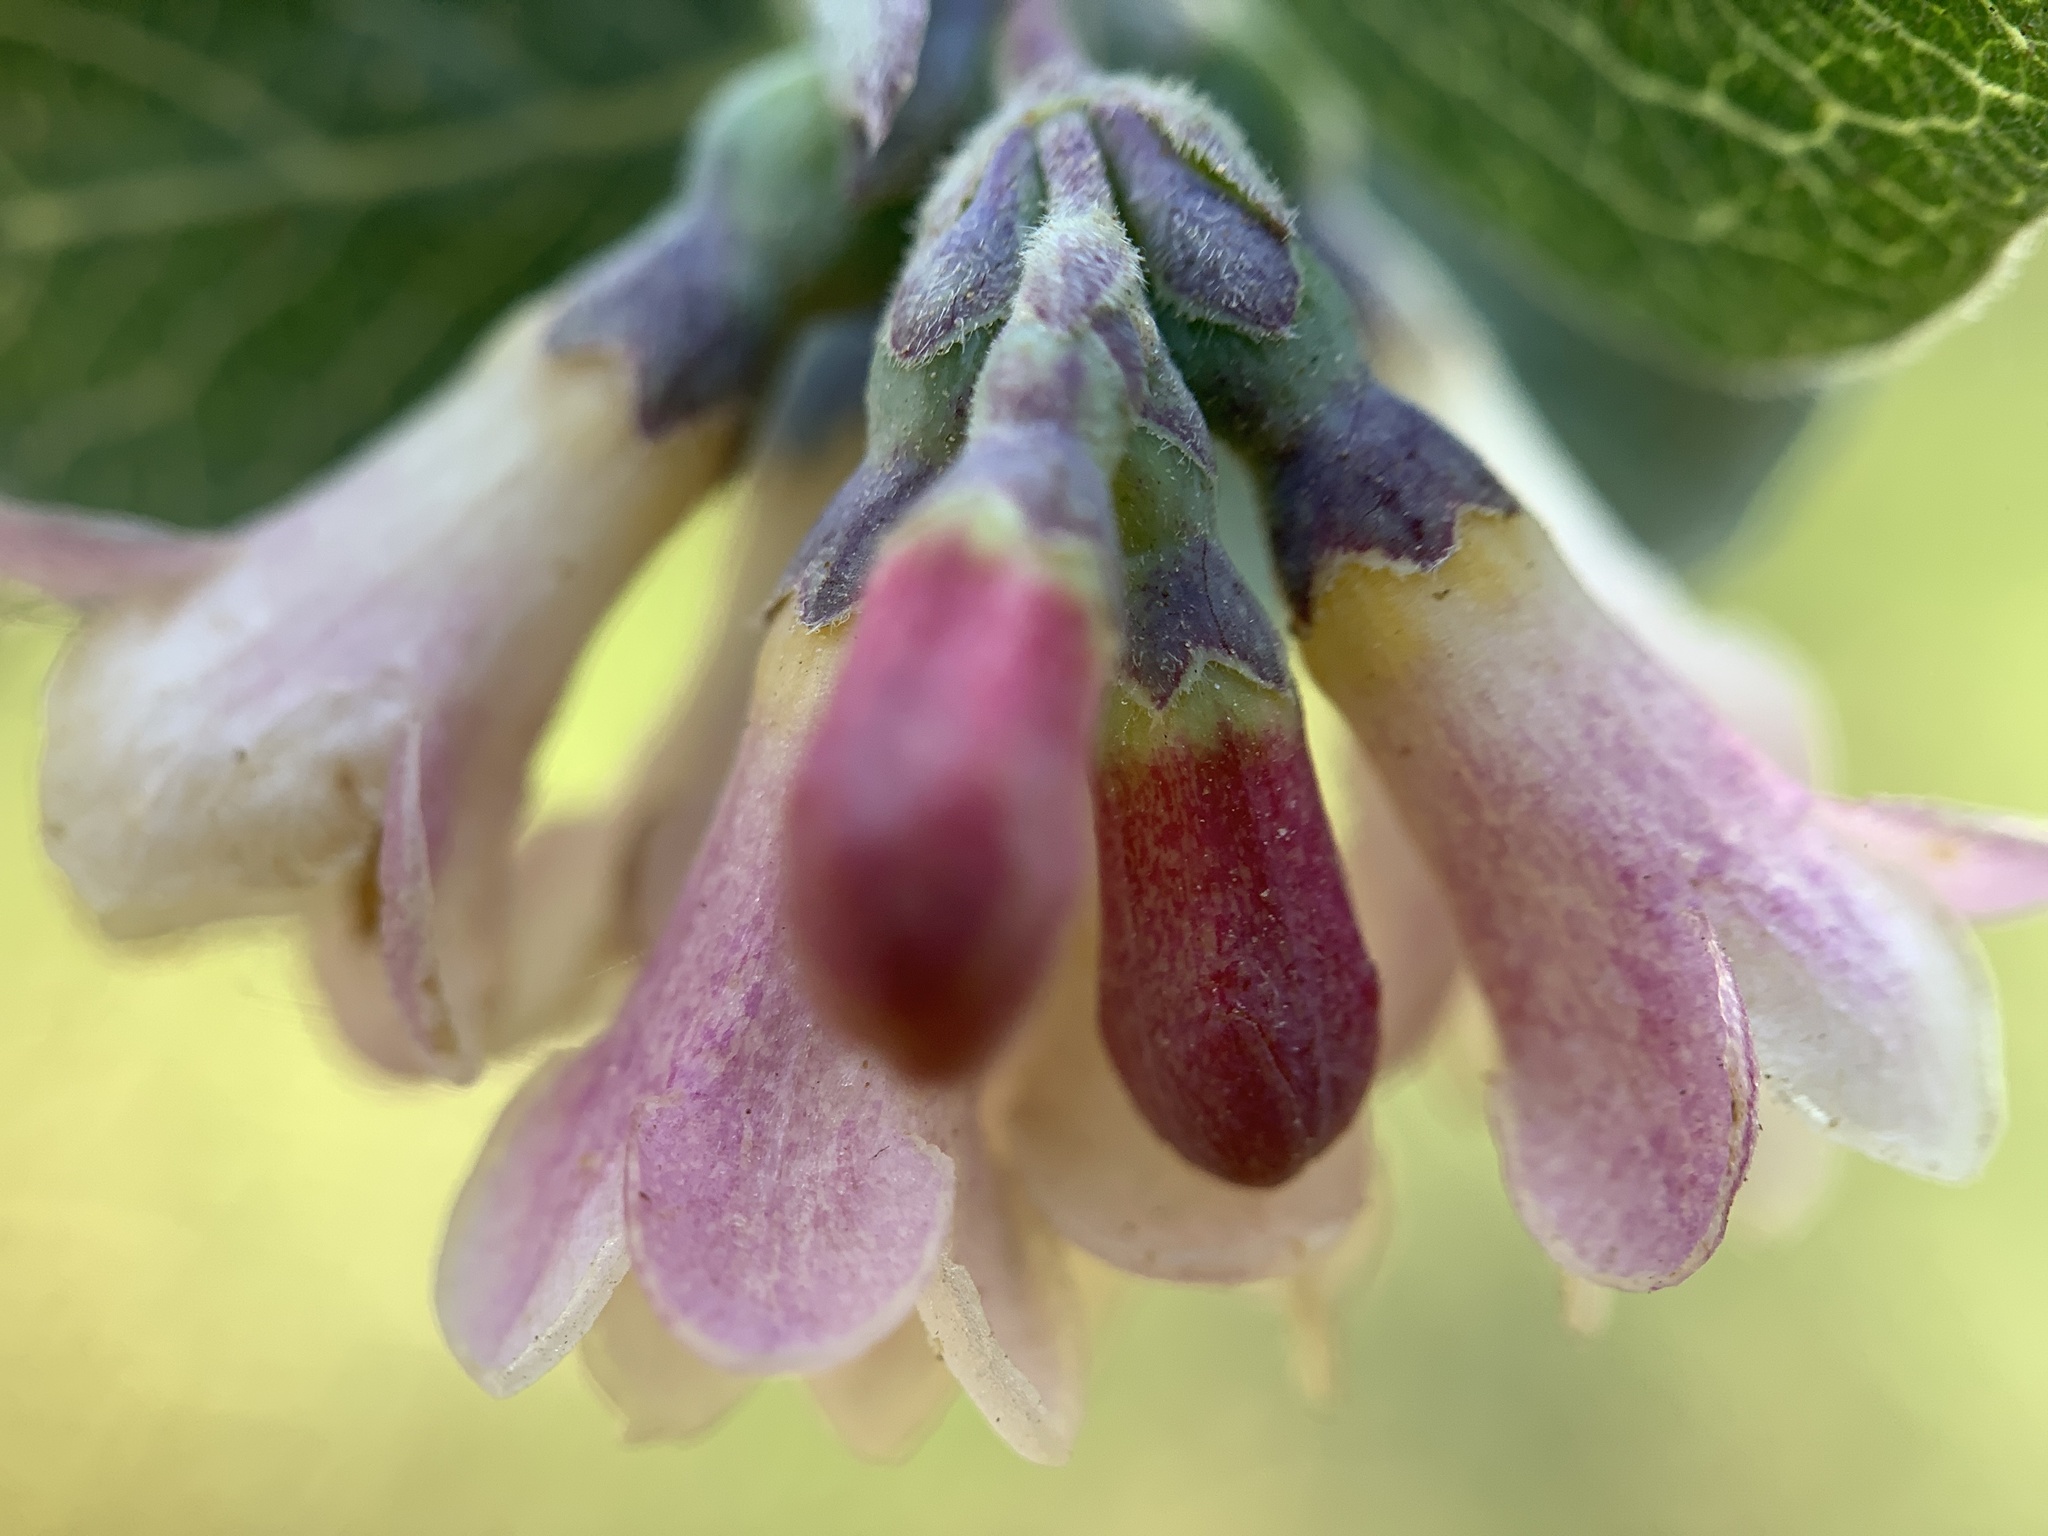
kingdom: Plantae
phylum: Tracheophyta
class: Magnoliopsida
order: Dipsacales
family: Caprifoliaceae
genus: Symphoricarpos
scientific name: Symphoricarpos rotundifolius
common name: Round-leaved snowberry
